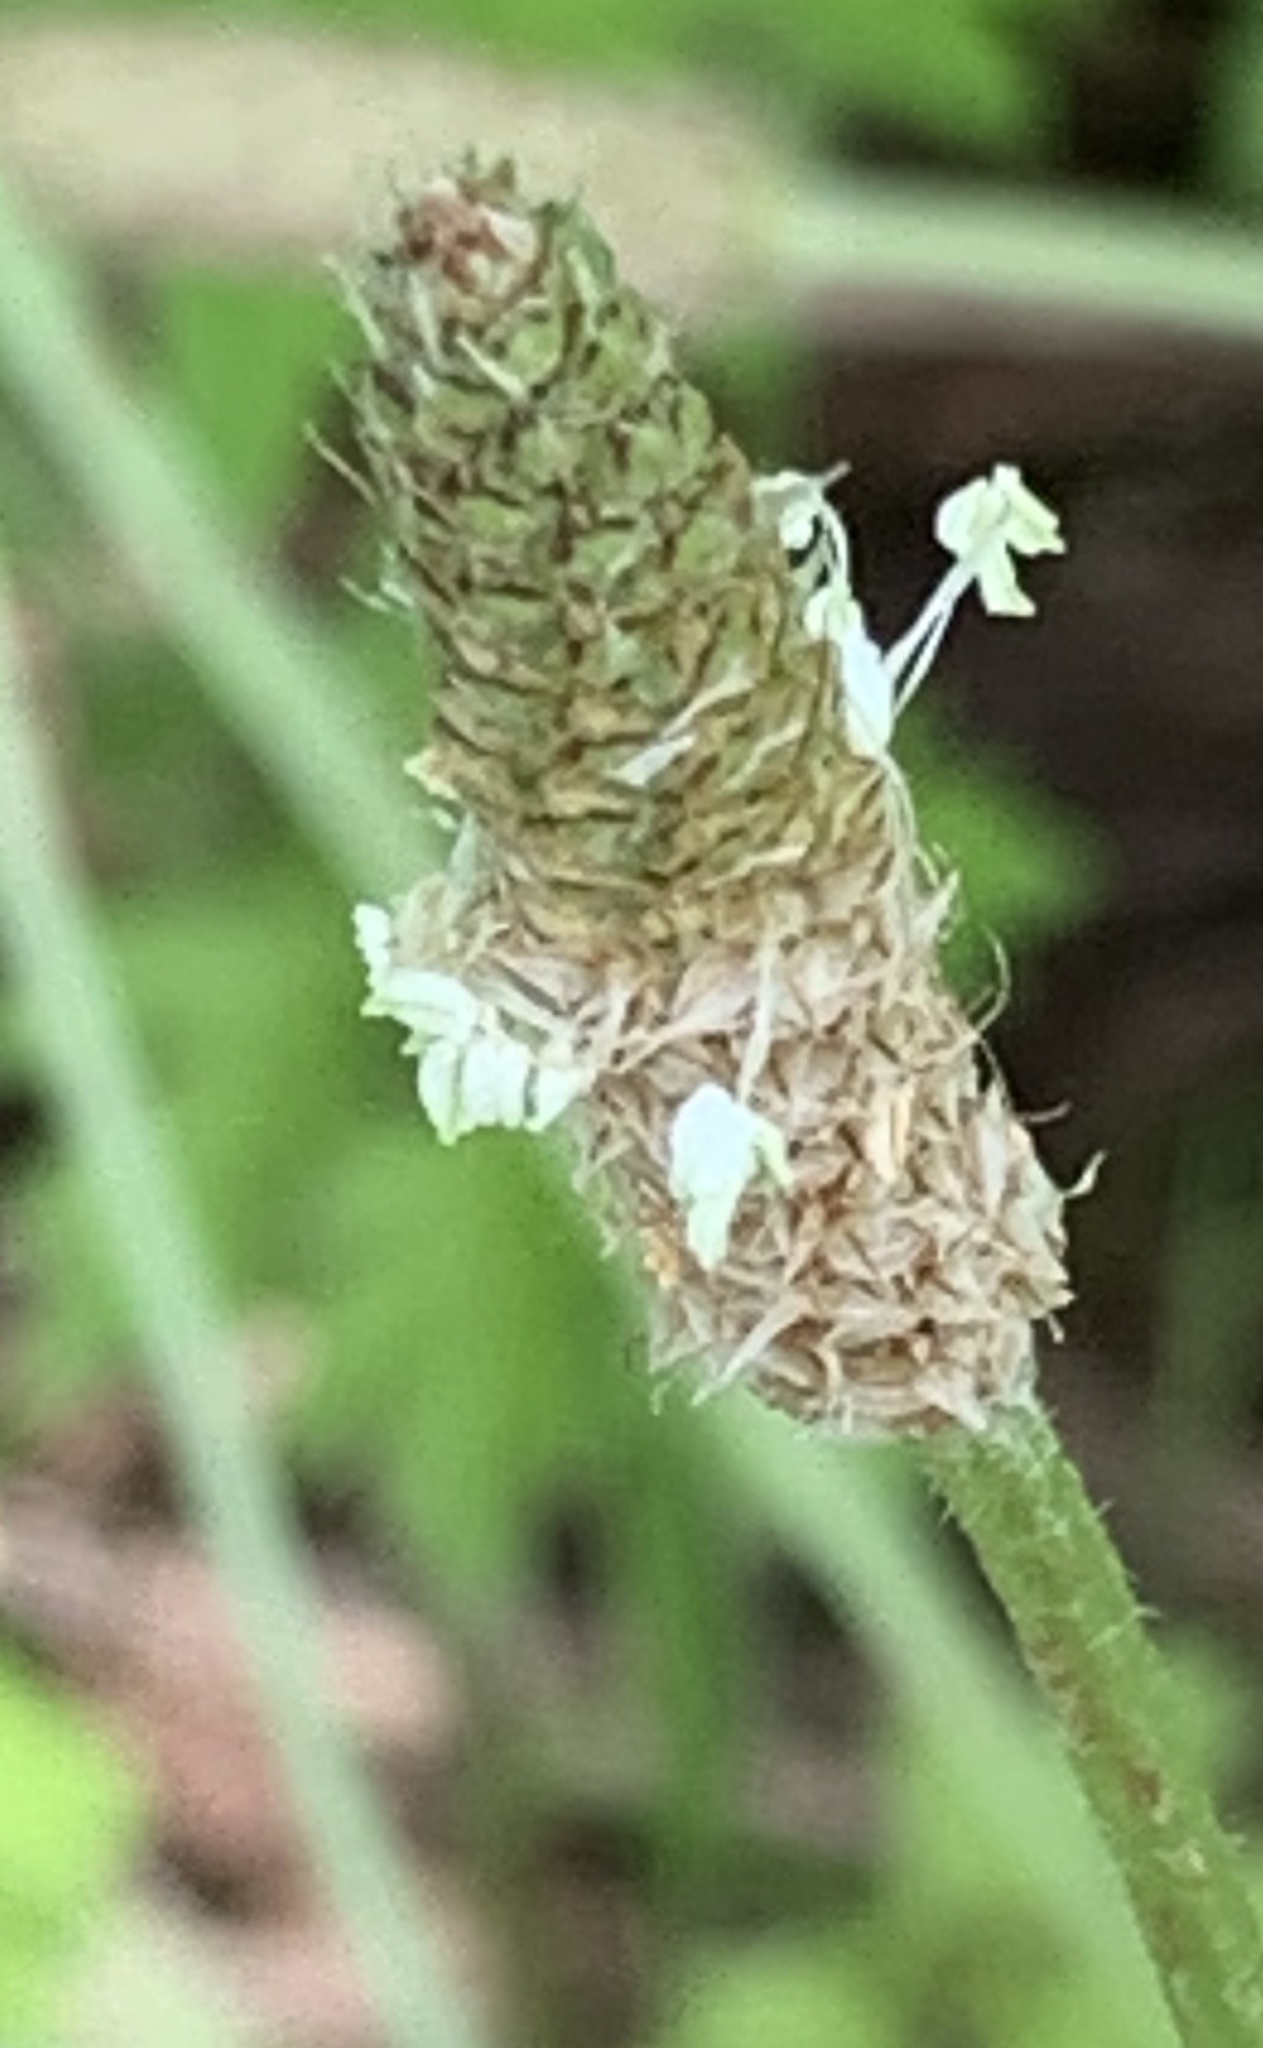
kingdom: Plantae
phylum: Tracheophyta
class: Magnoliopsida
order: Lamiales
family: Plantaginaceae
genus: Plantago
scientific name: Plantago lanceolata
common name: Ribwort plantain
